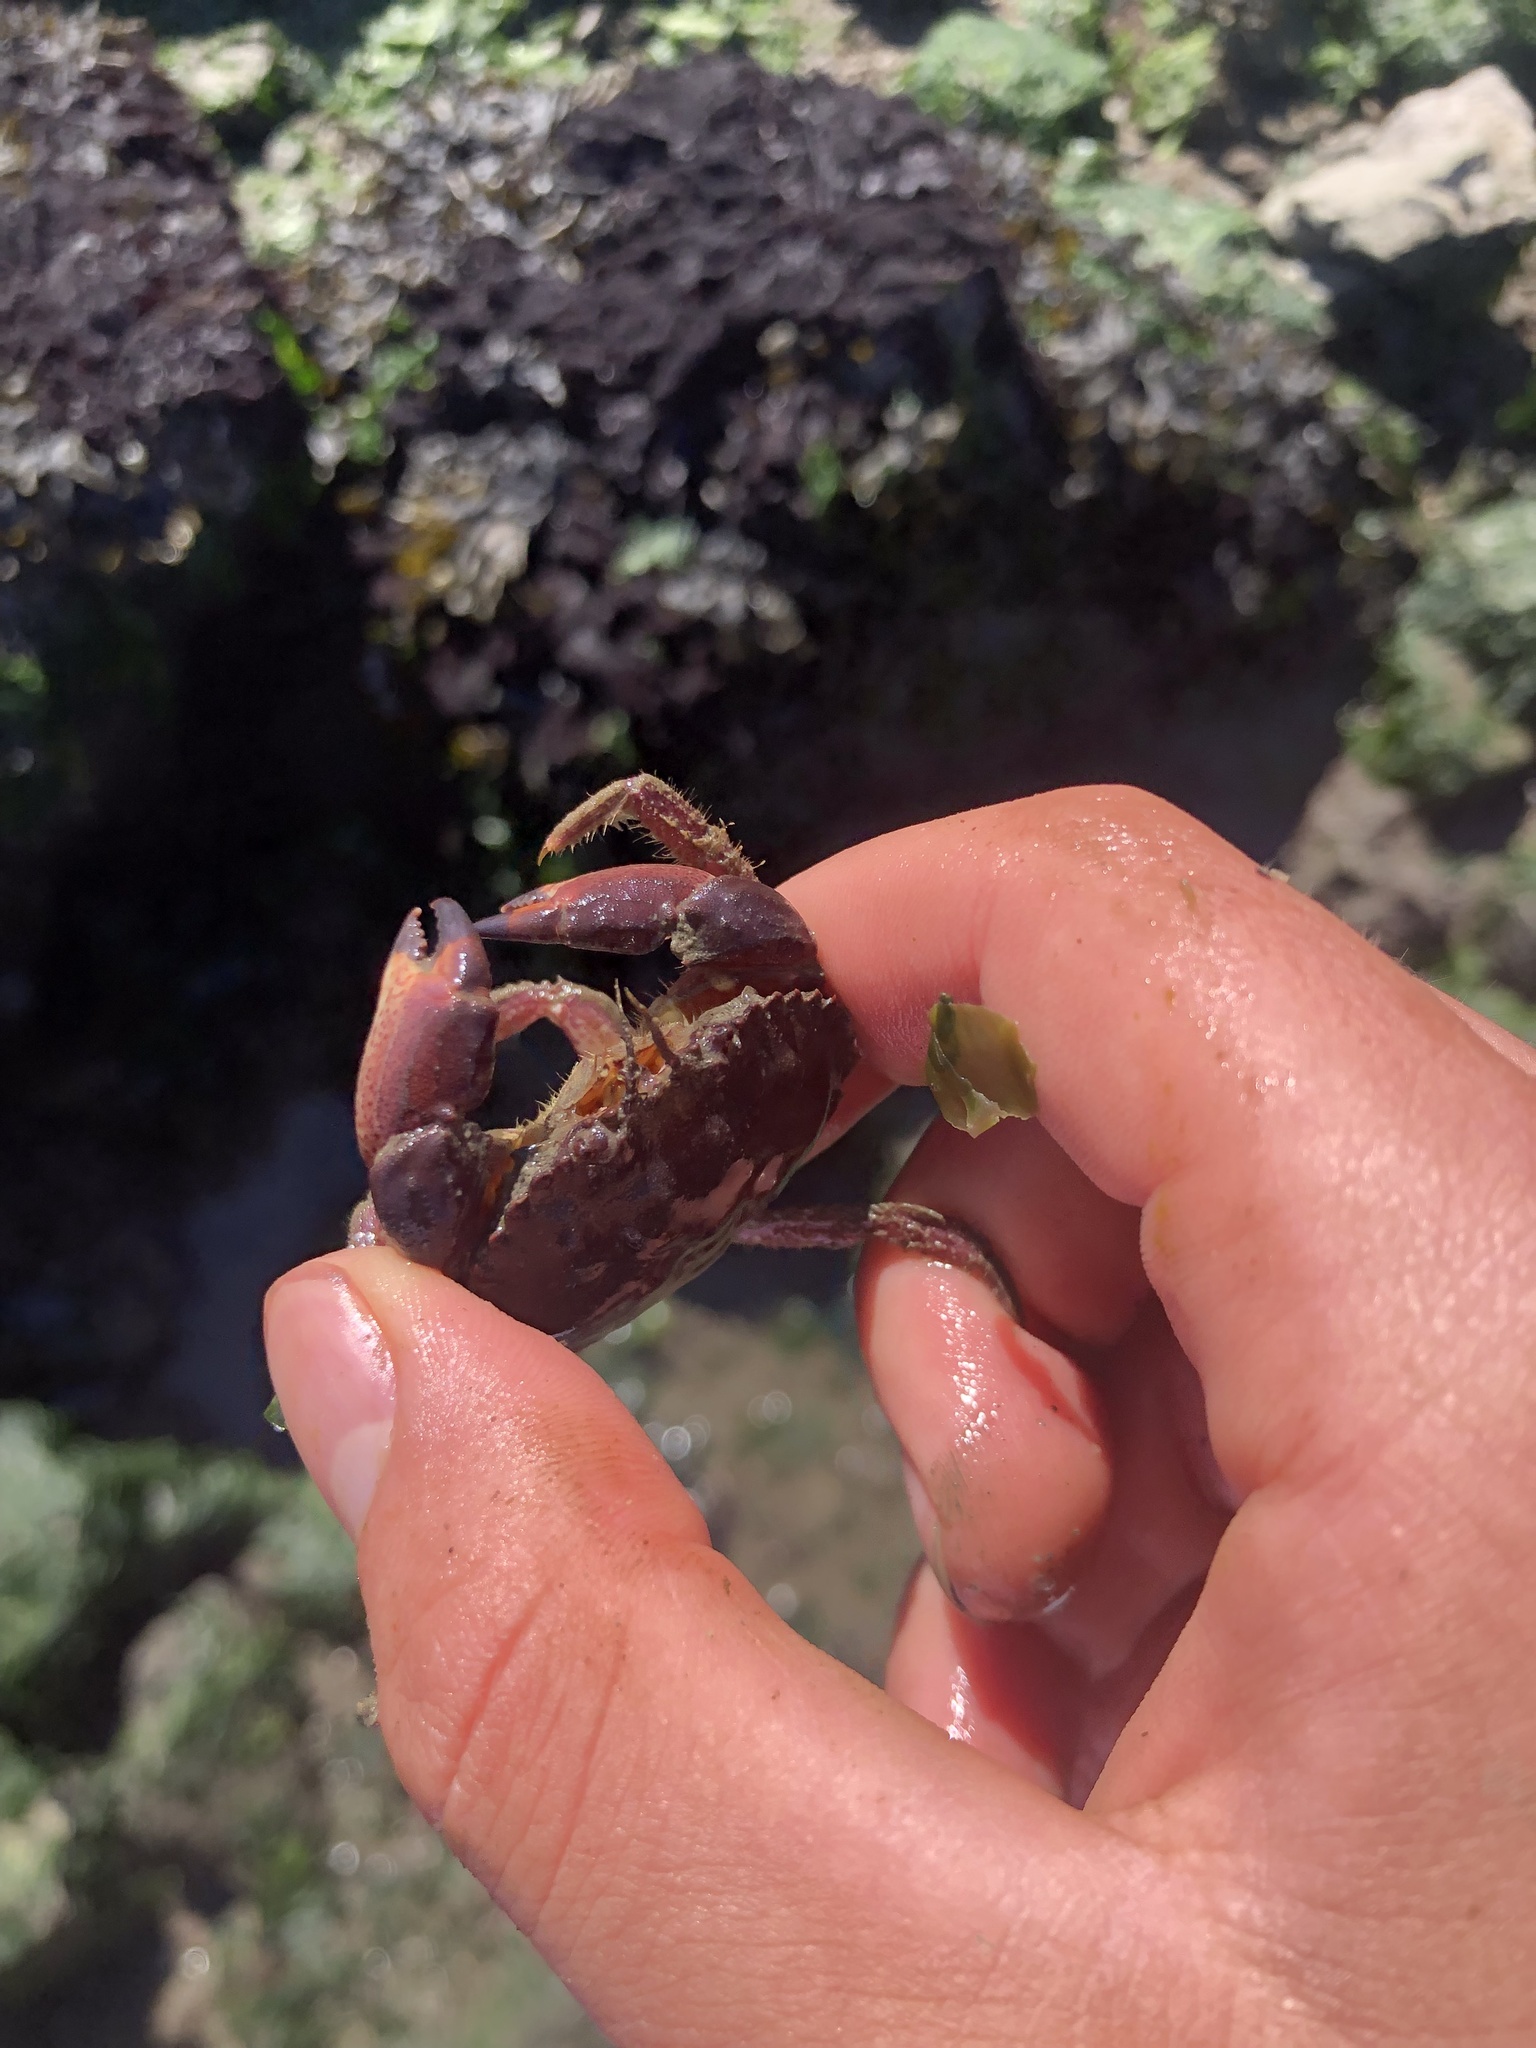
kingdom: Animalia
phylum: Arthropoda
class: Malacostraca
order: Decapoda
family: Cancridae
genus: Romaleon
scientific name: Romaleon antennarium
